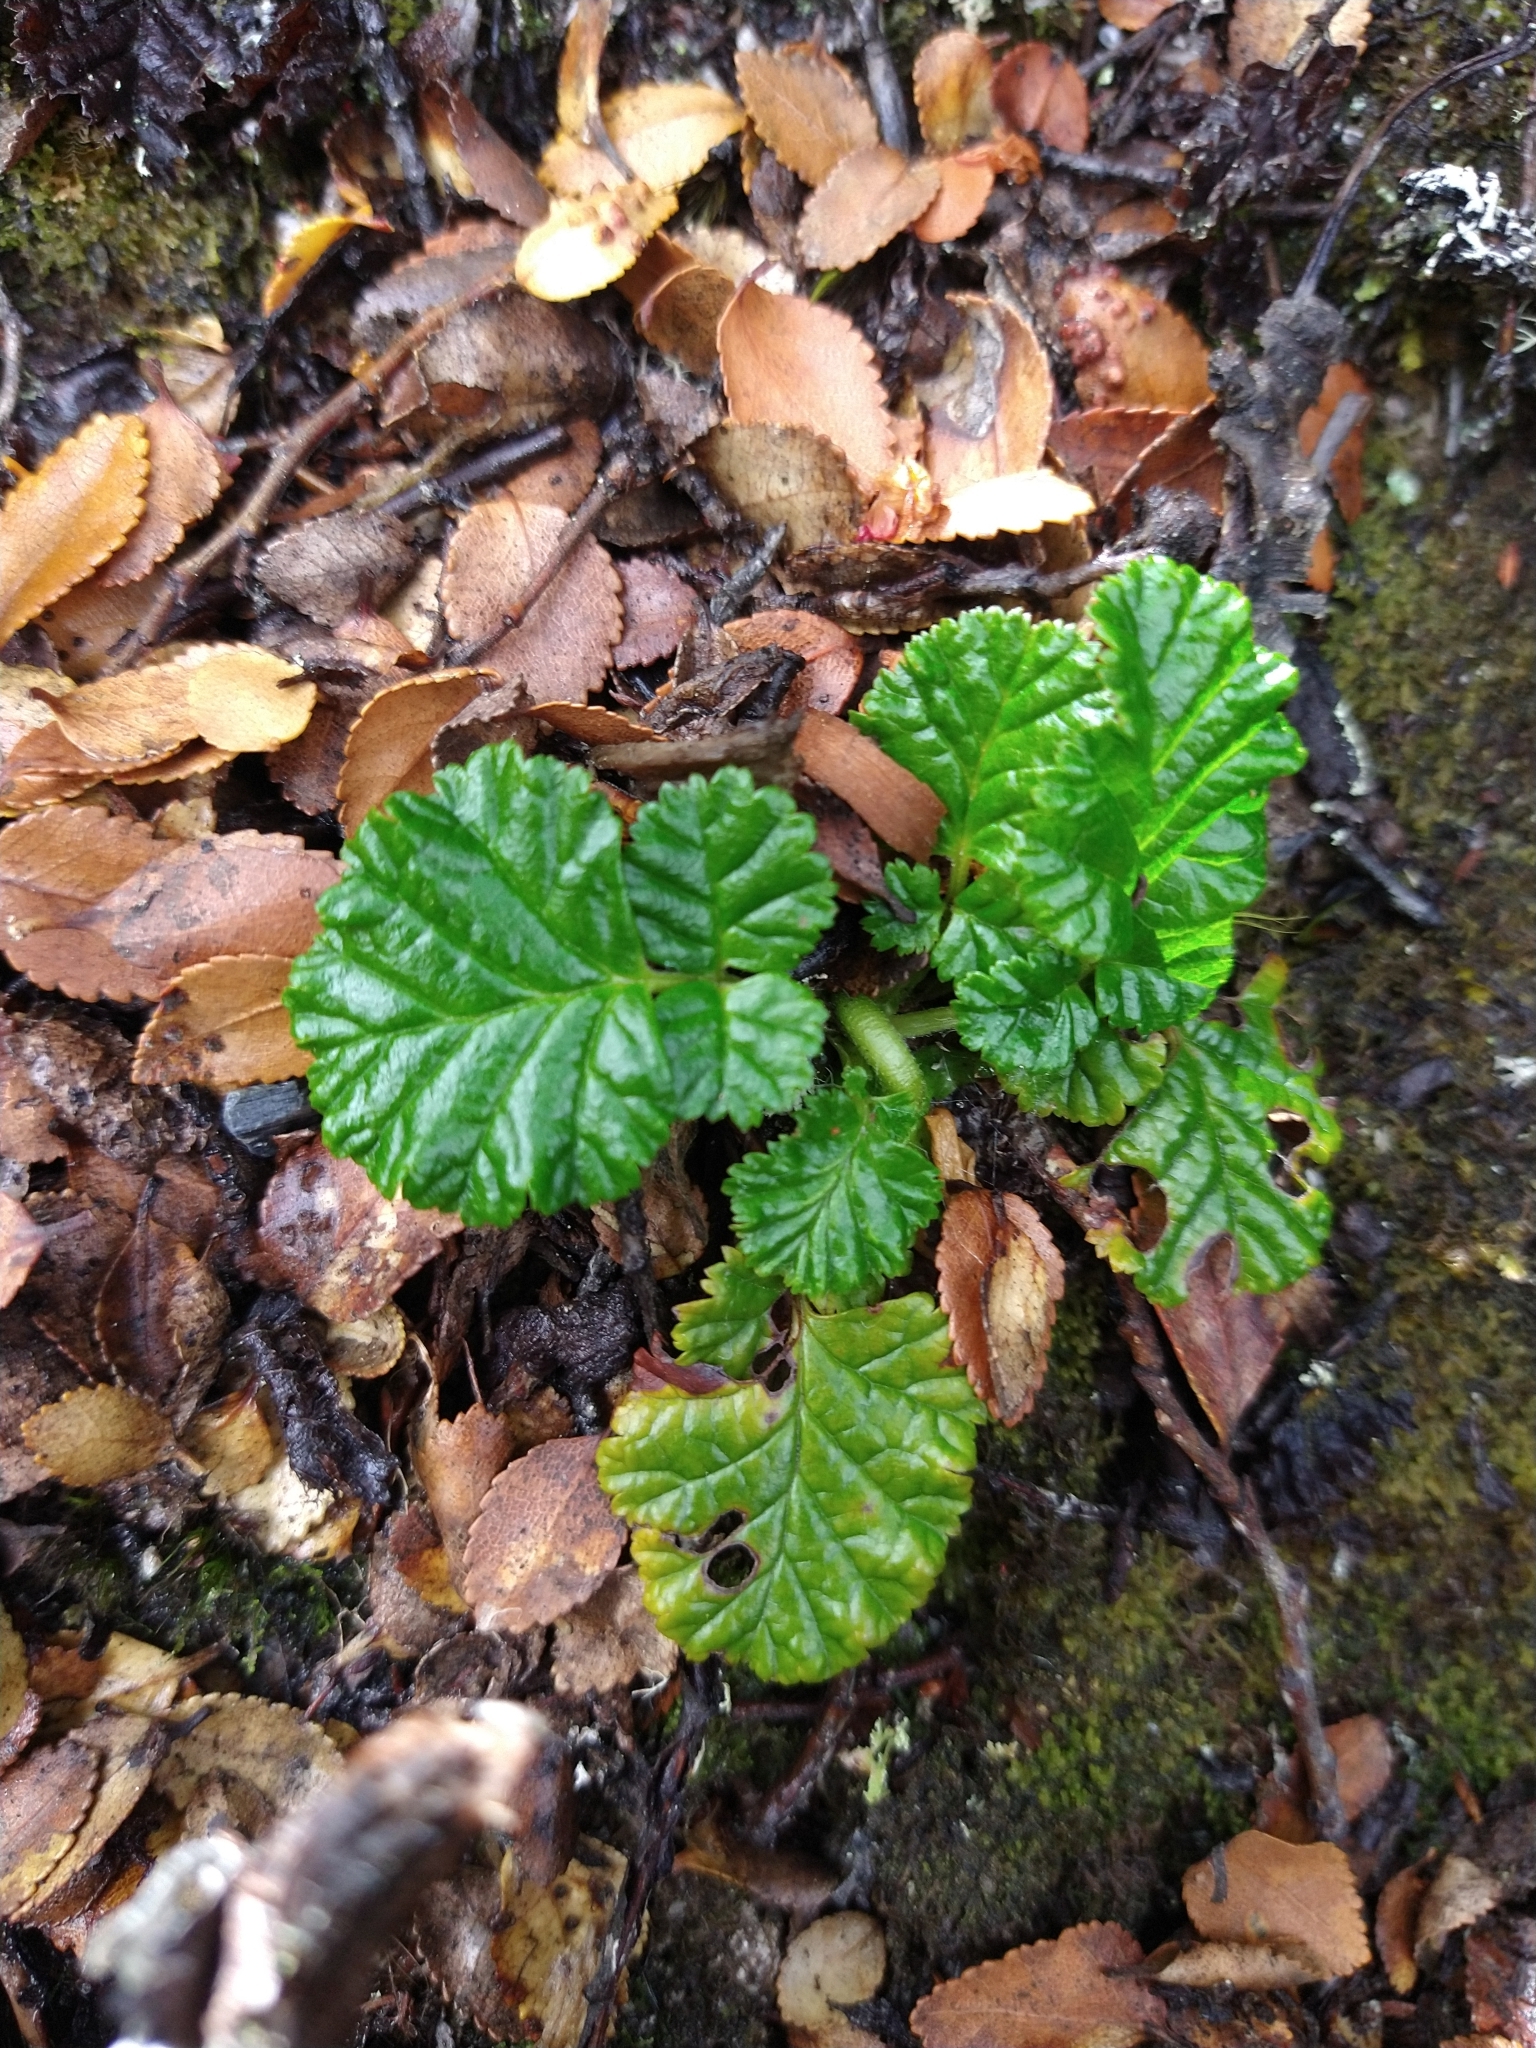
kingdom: Plantae
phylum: Tracheophyta
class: Magnoliopsida
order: Rosales
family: Rosaceae
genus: Rubus
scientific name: Rubus geoides
